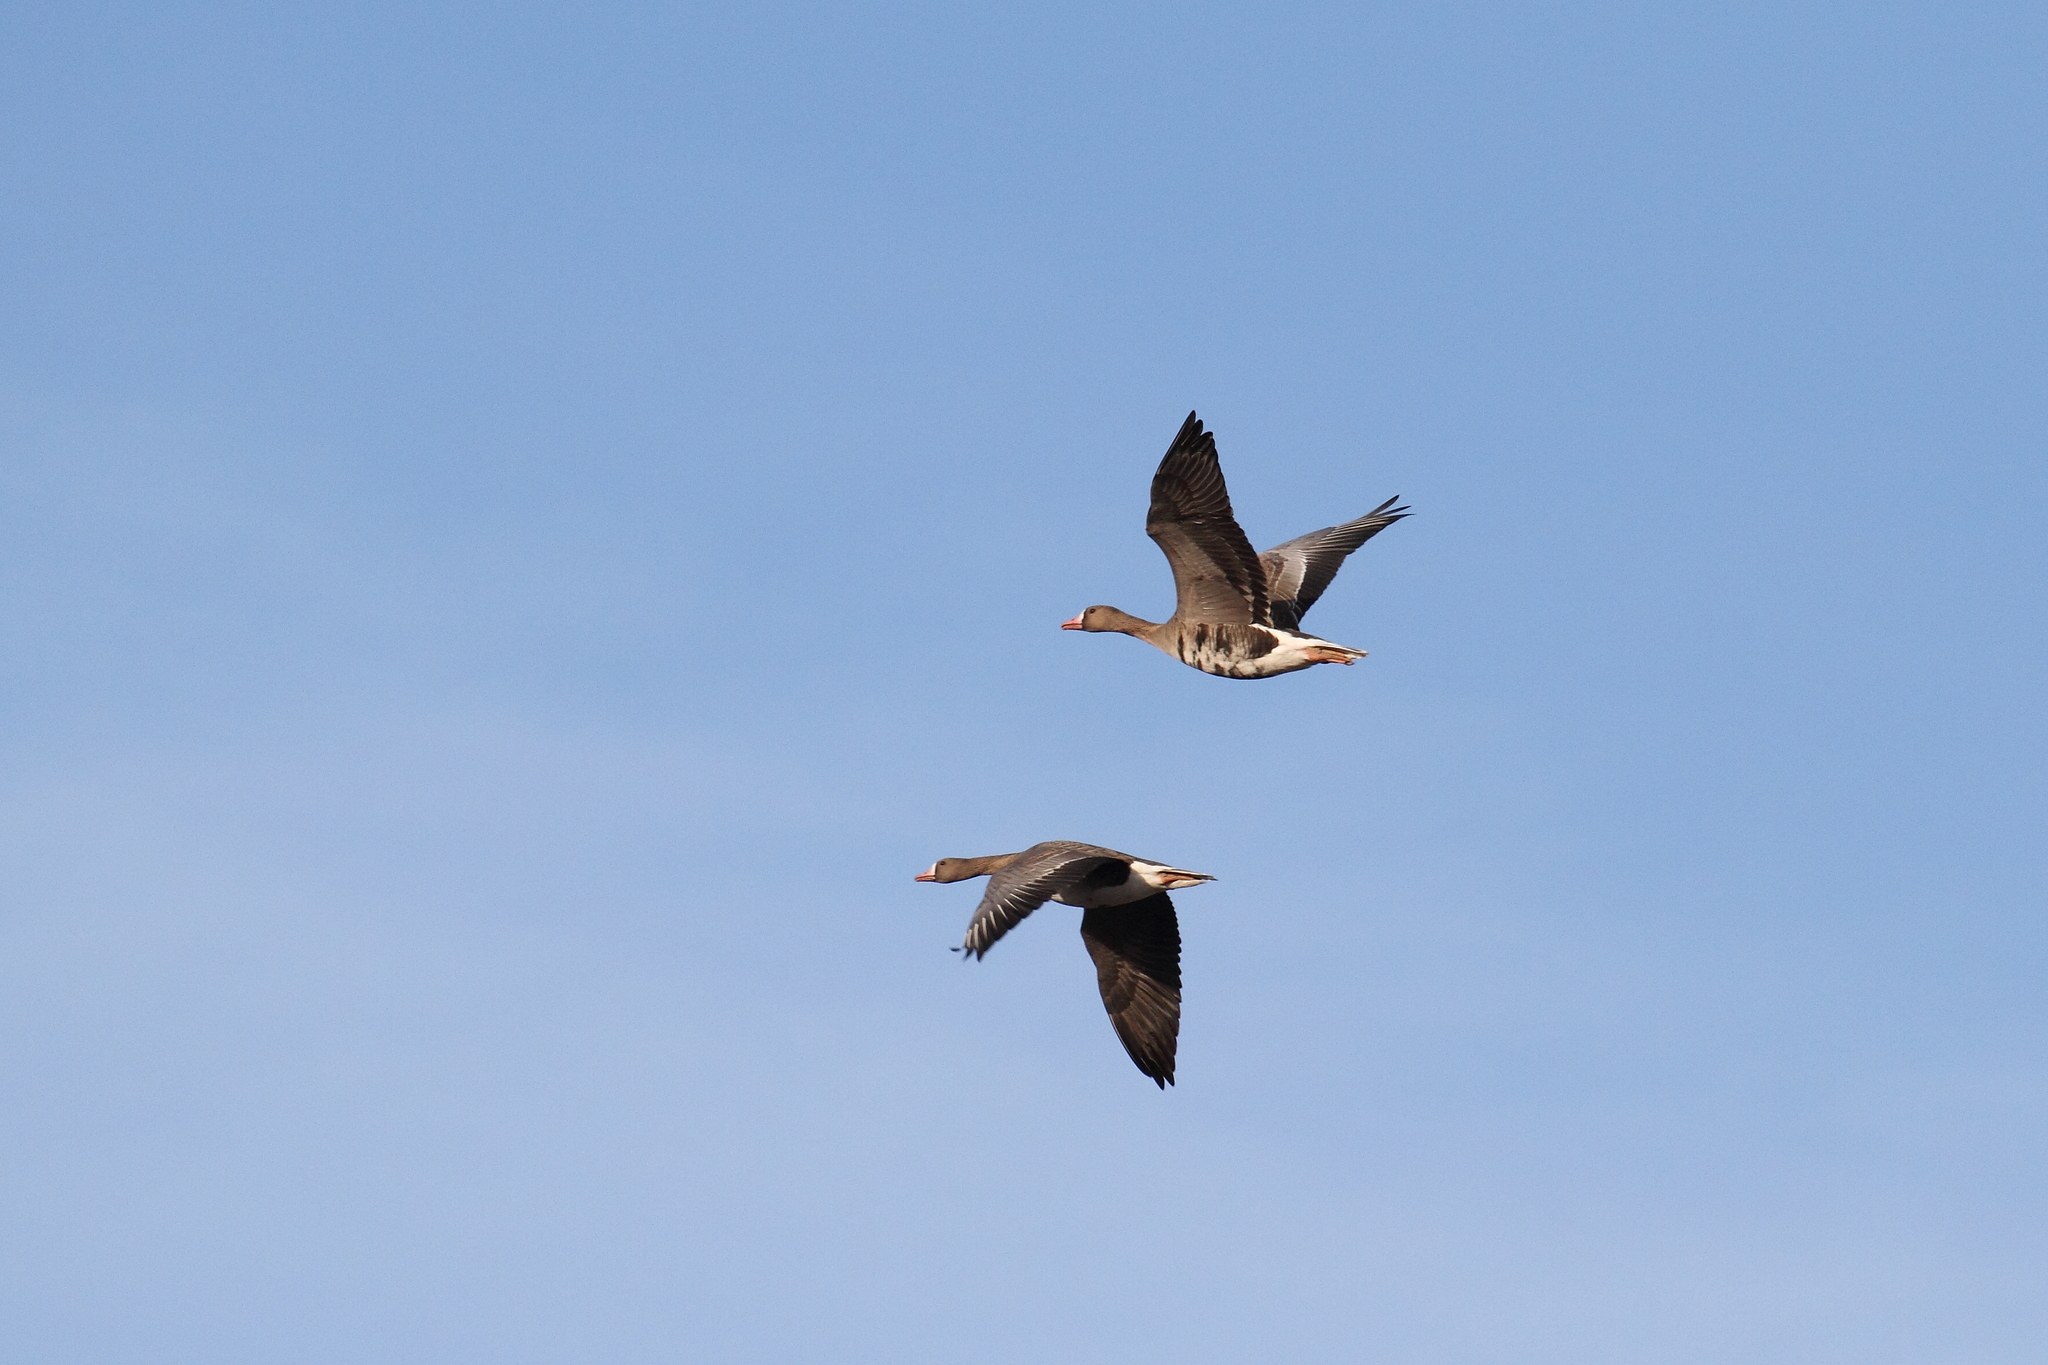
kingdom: Animalia
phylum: Chordata
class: Aves
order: Anseriformes
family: Anatidae
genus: Anser
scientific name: Anser albifrons
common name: Greater white-fronted goose
